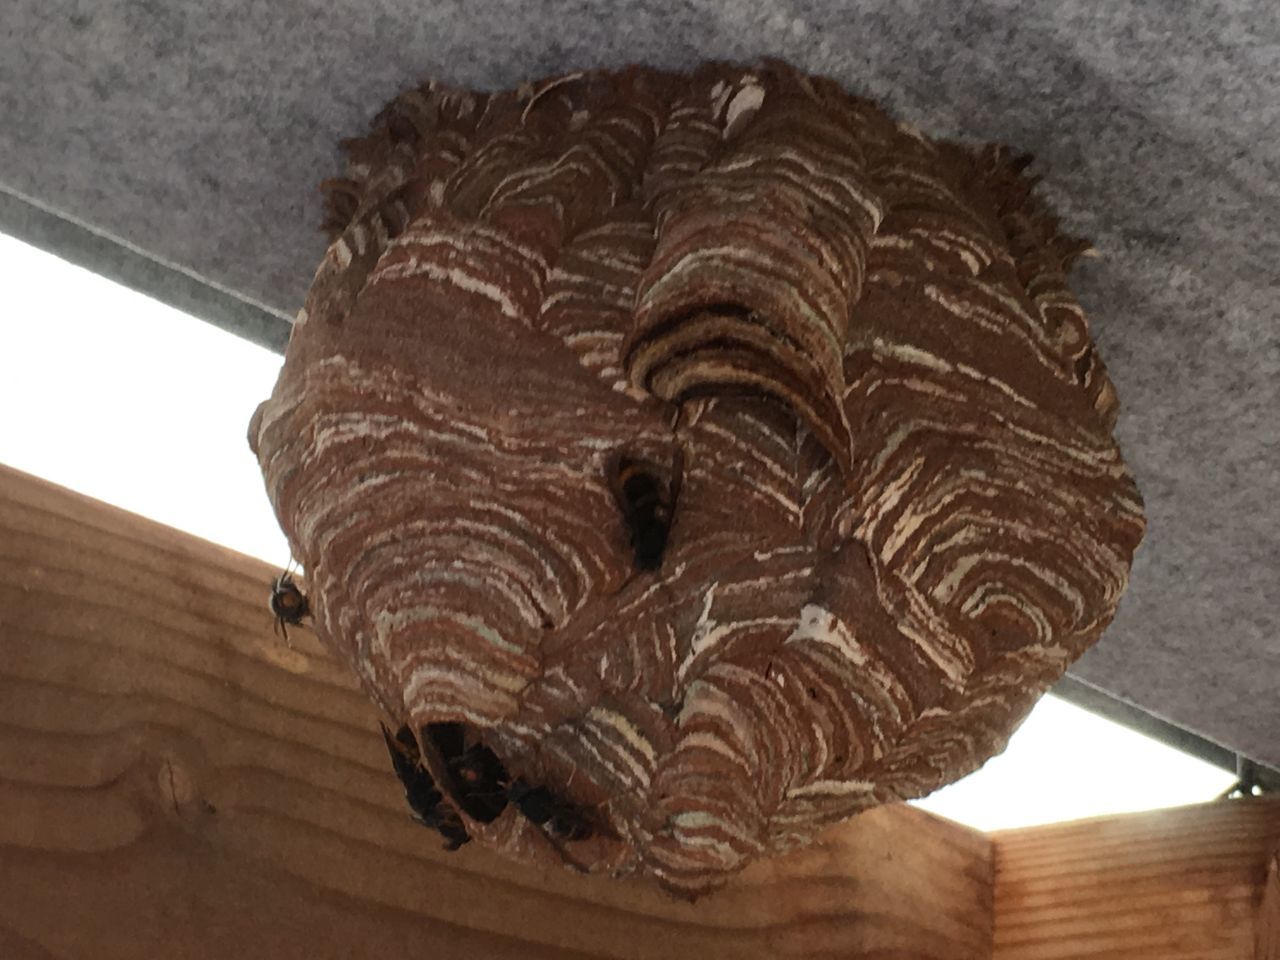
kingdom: Animalia
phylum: Arthropoda
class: Insecta
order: Hymenoptera
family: Vespidae
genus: Vespa
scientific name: Vespa velutina
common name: Asian hornet
